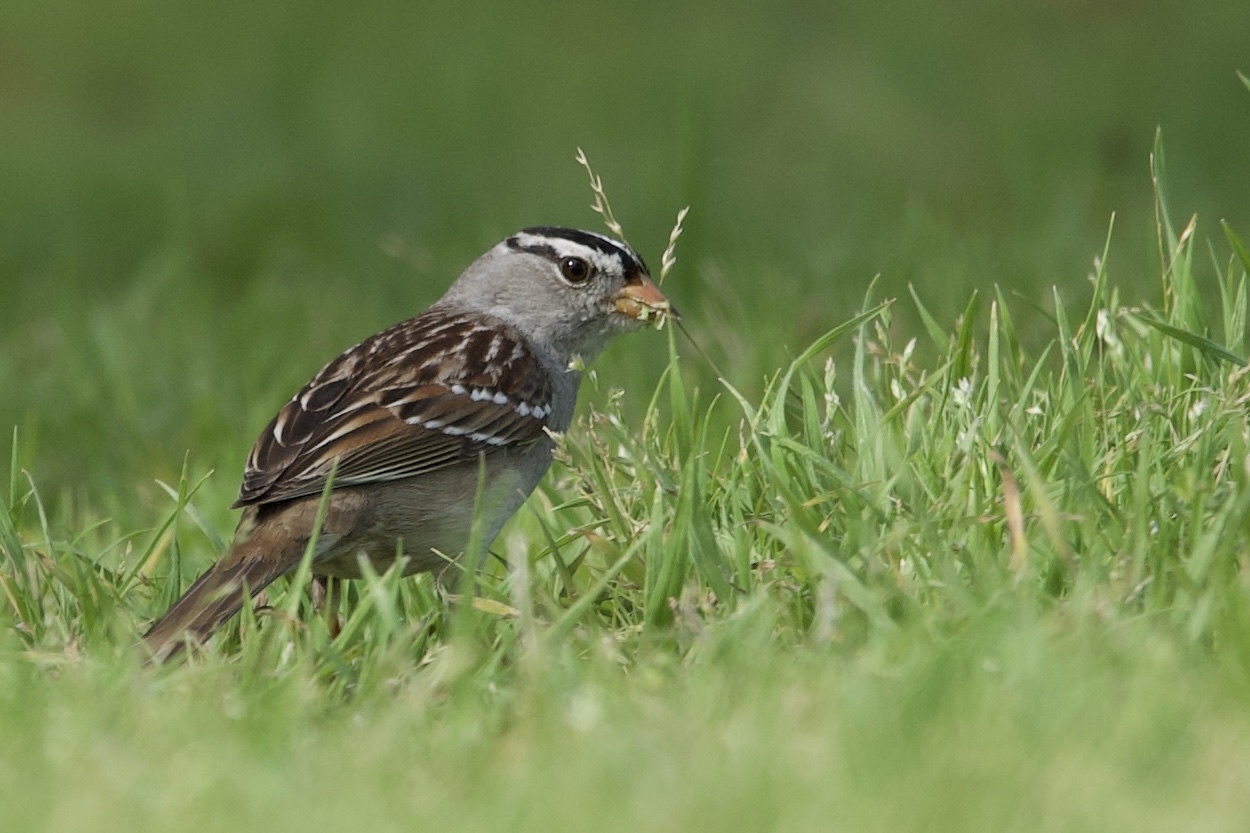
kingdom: Animalia
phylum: Chordata
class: Aves
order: Passeriformes
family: Passerellidae
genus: Zonotrichia
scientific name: Zonotrichia leucophrys
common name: White-crowned sparrow
